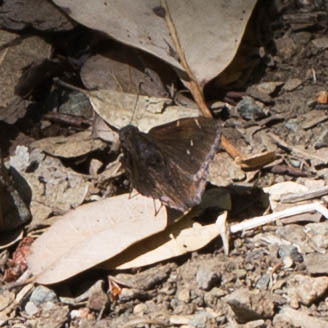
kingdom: Animalia
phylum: Arthropoda
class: Insecta
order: Lepidoptera
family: Hesperiidae
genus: Thorybes
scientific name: Thorybes pylades
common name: Northern cloudywing
